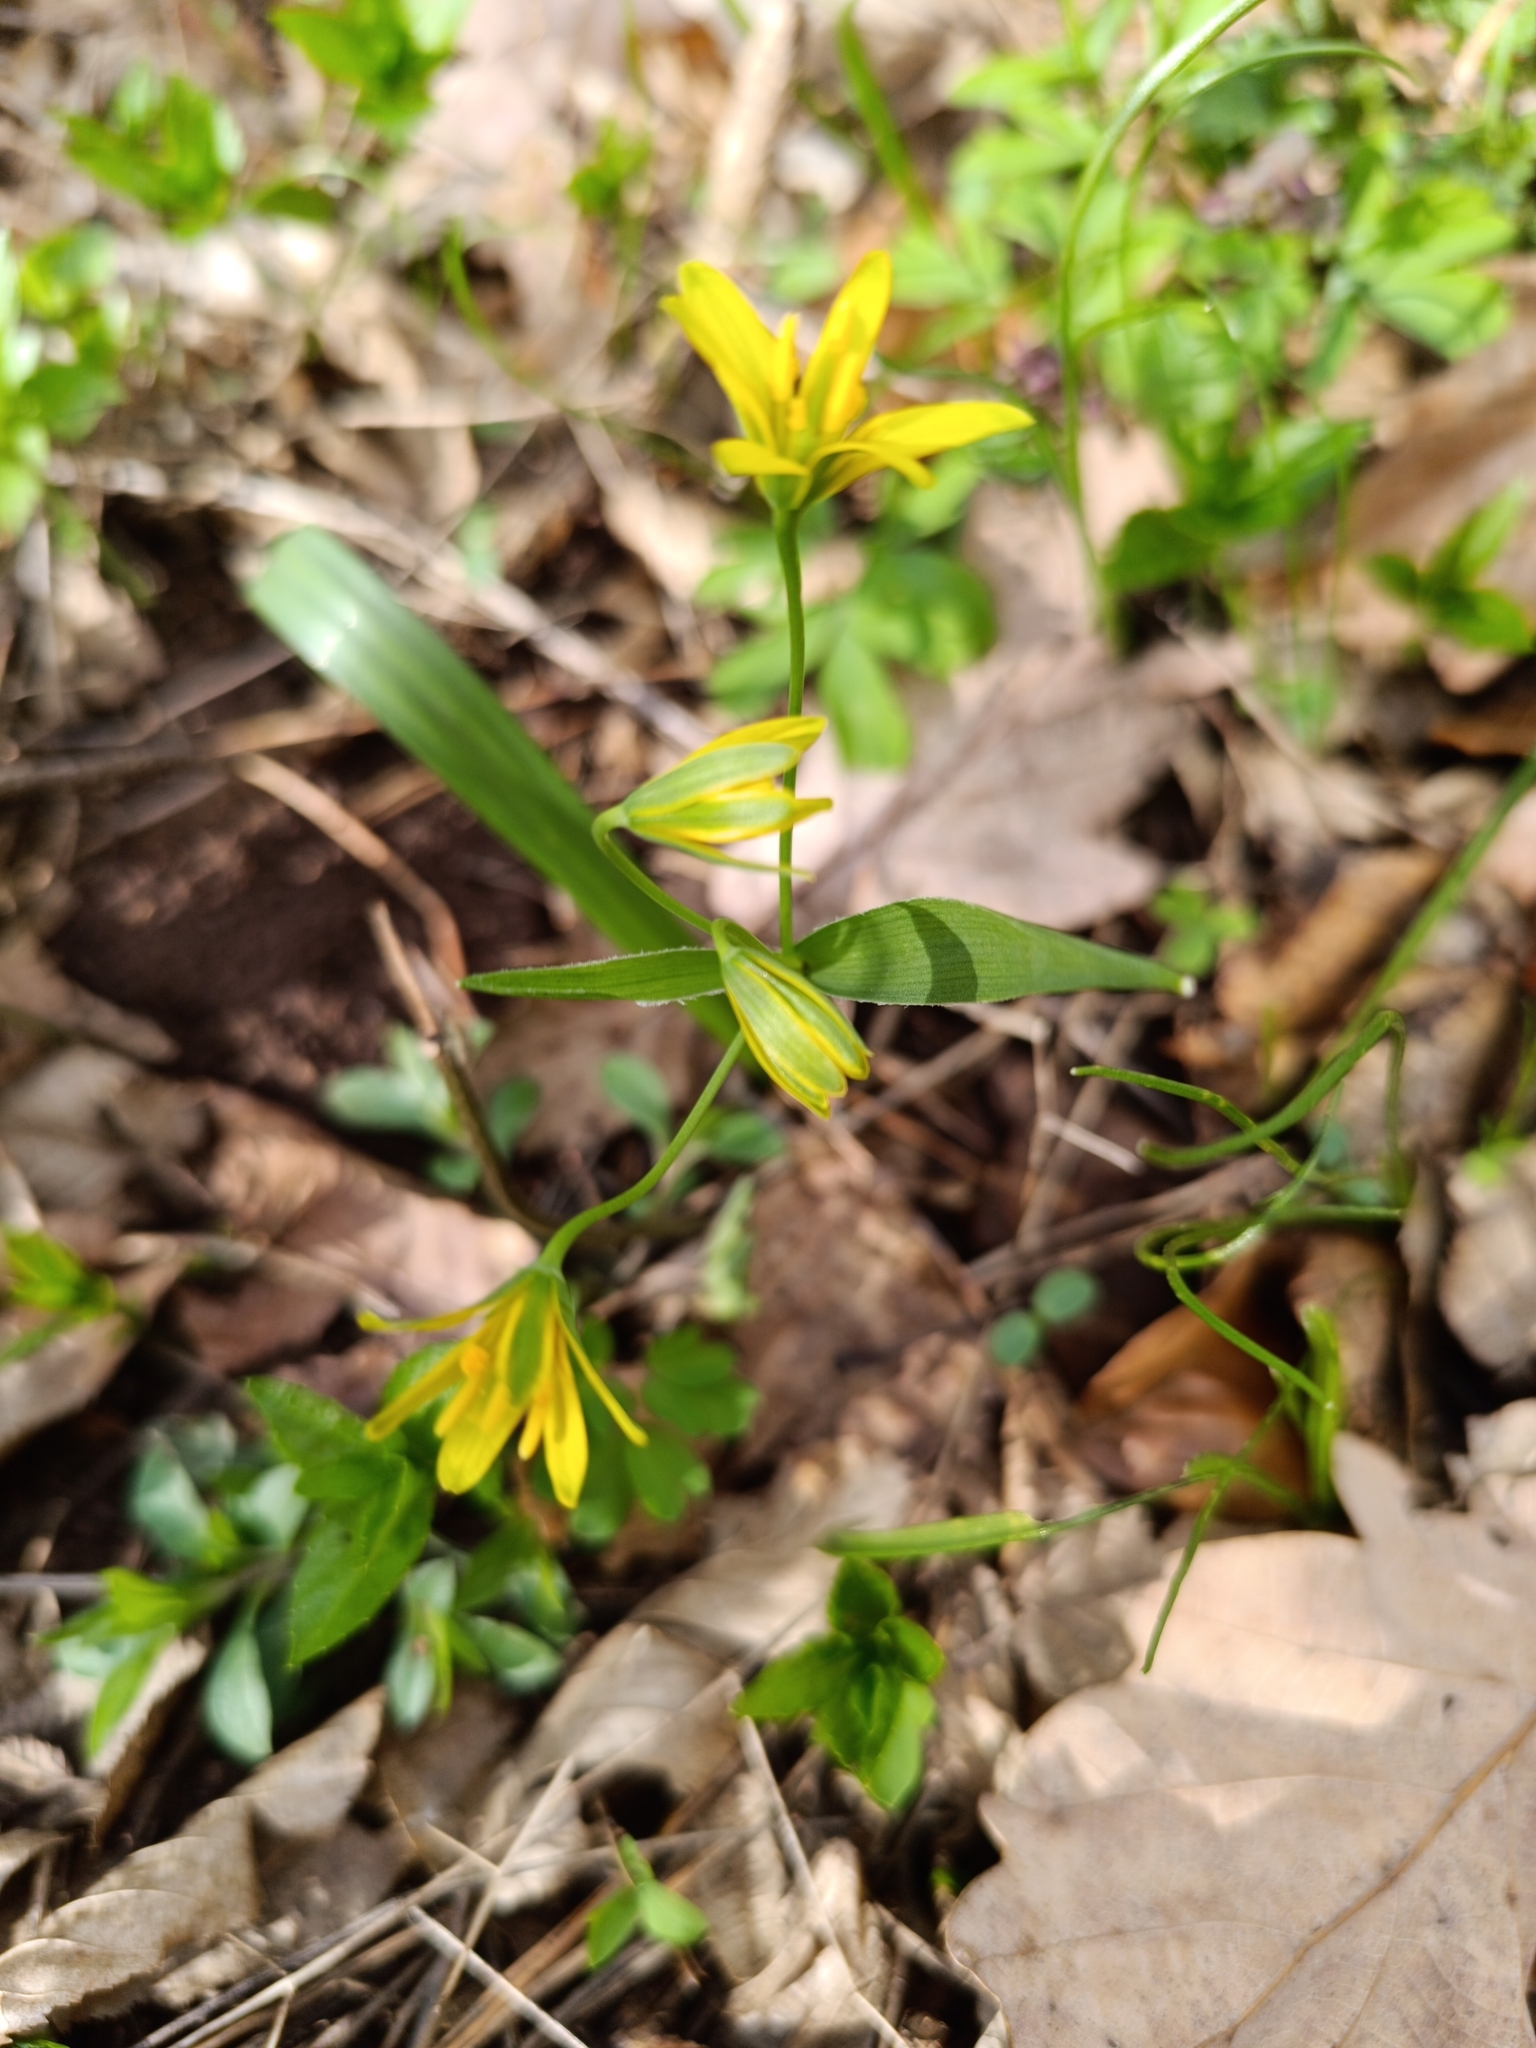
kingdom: Plantae
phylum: Tracheophyta
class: Liliopsida
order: Liliales
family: Liliaceae
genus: Gagea
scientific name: Gagea lutea
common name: Yellow star-of-bethlehem
